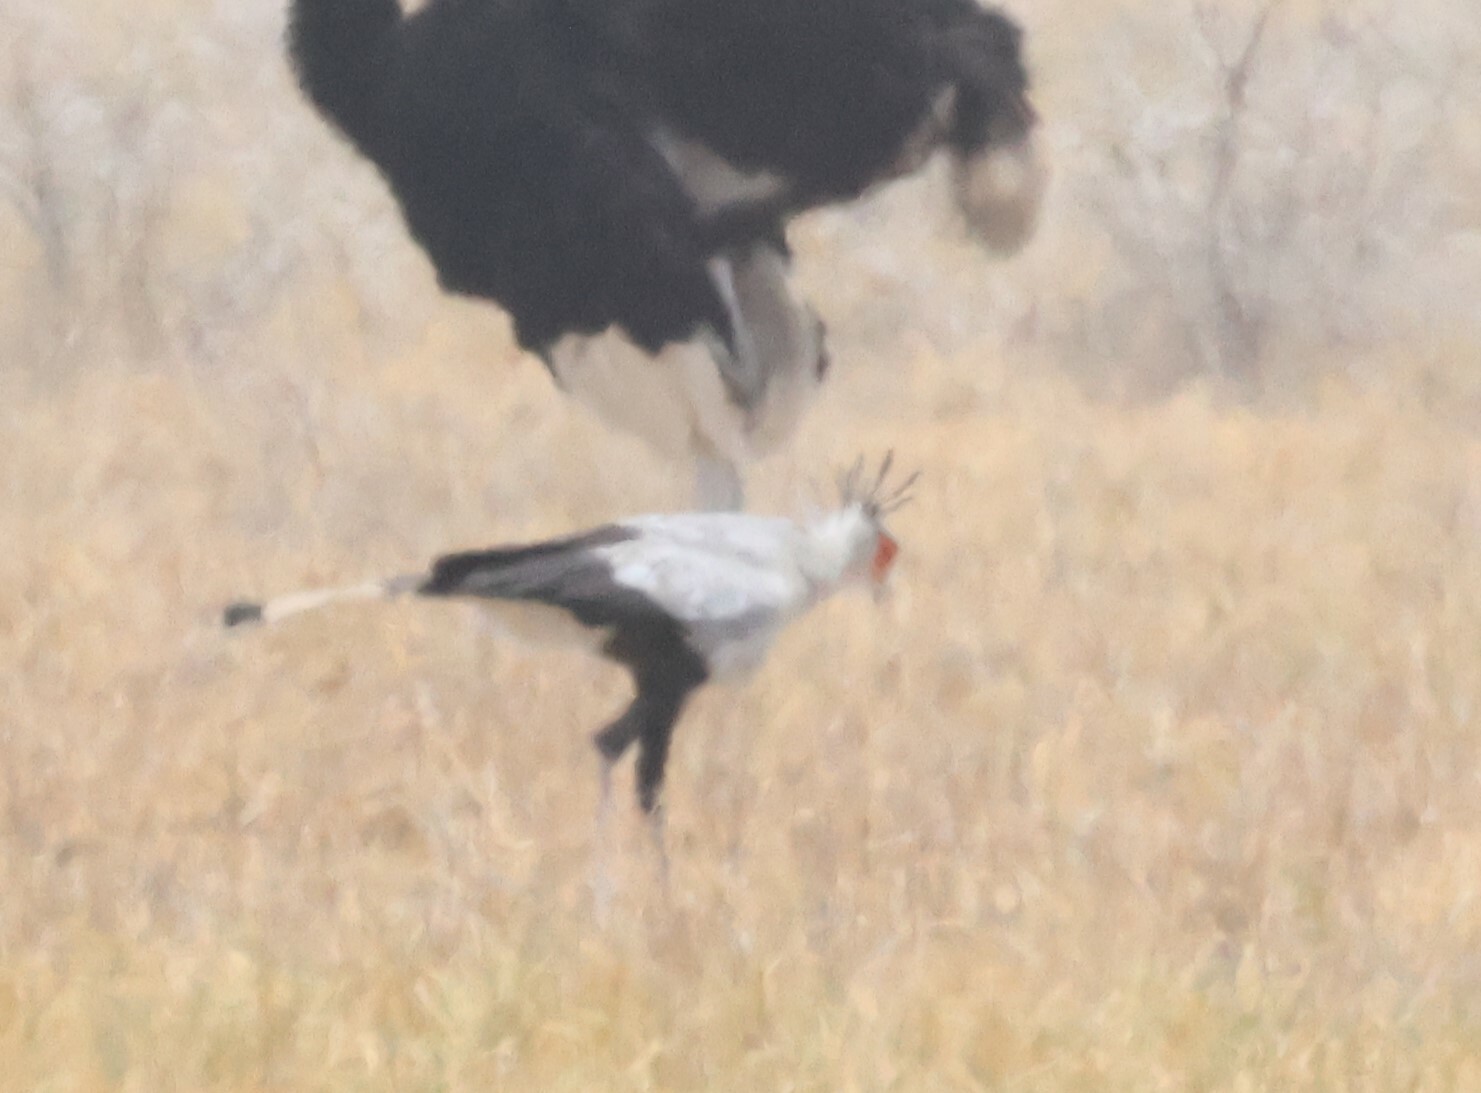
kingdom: Animalia
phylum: Chordata
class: Aves
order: Accipitriformes
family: Sagittariidae
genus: Sagittarius
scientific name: Sagittarius serpentarius
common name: Secretarybird
